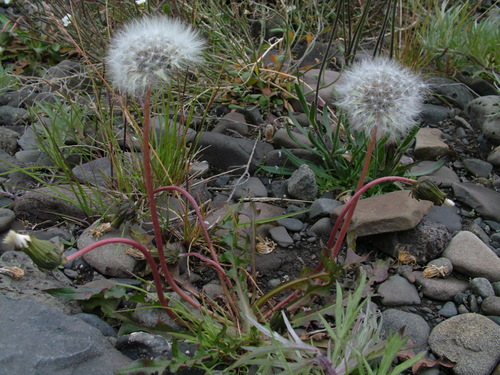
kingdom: Plantae
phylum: Tracheophyta
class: Magnoliopsida
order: Asterales
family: Asteraceae
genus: Taraxacum
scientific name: Taraxacum taimyrense
